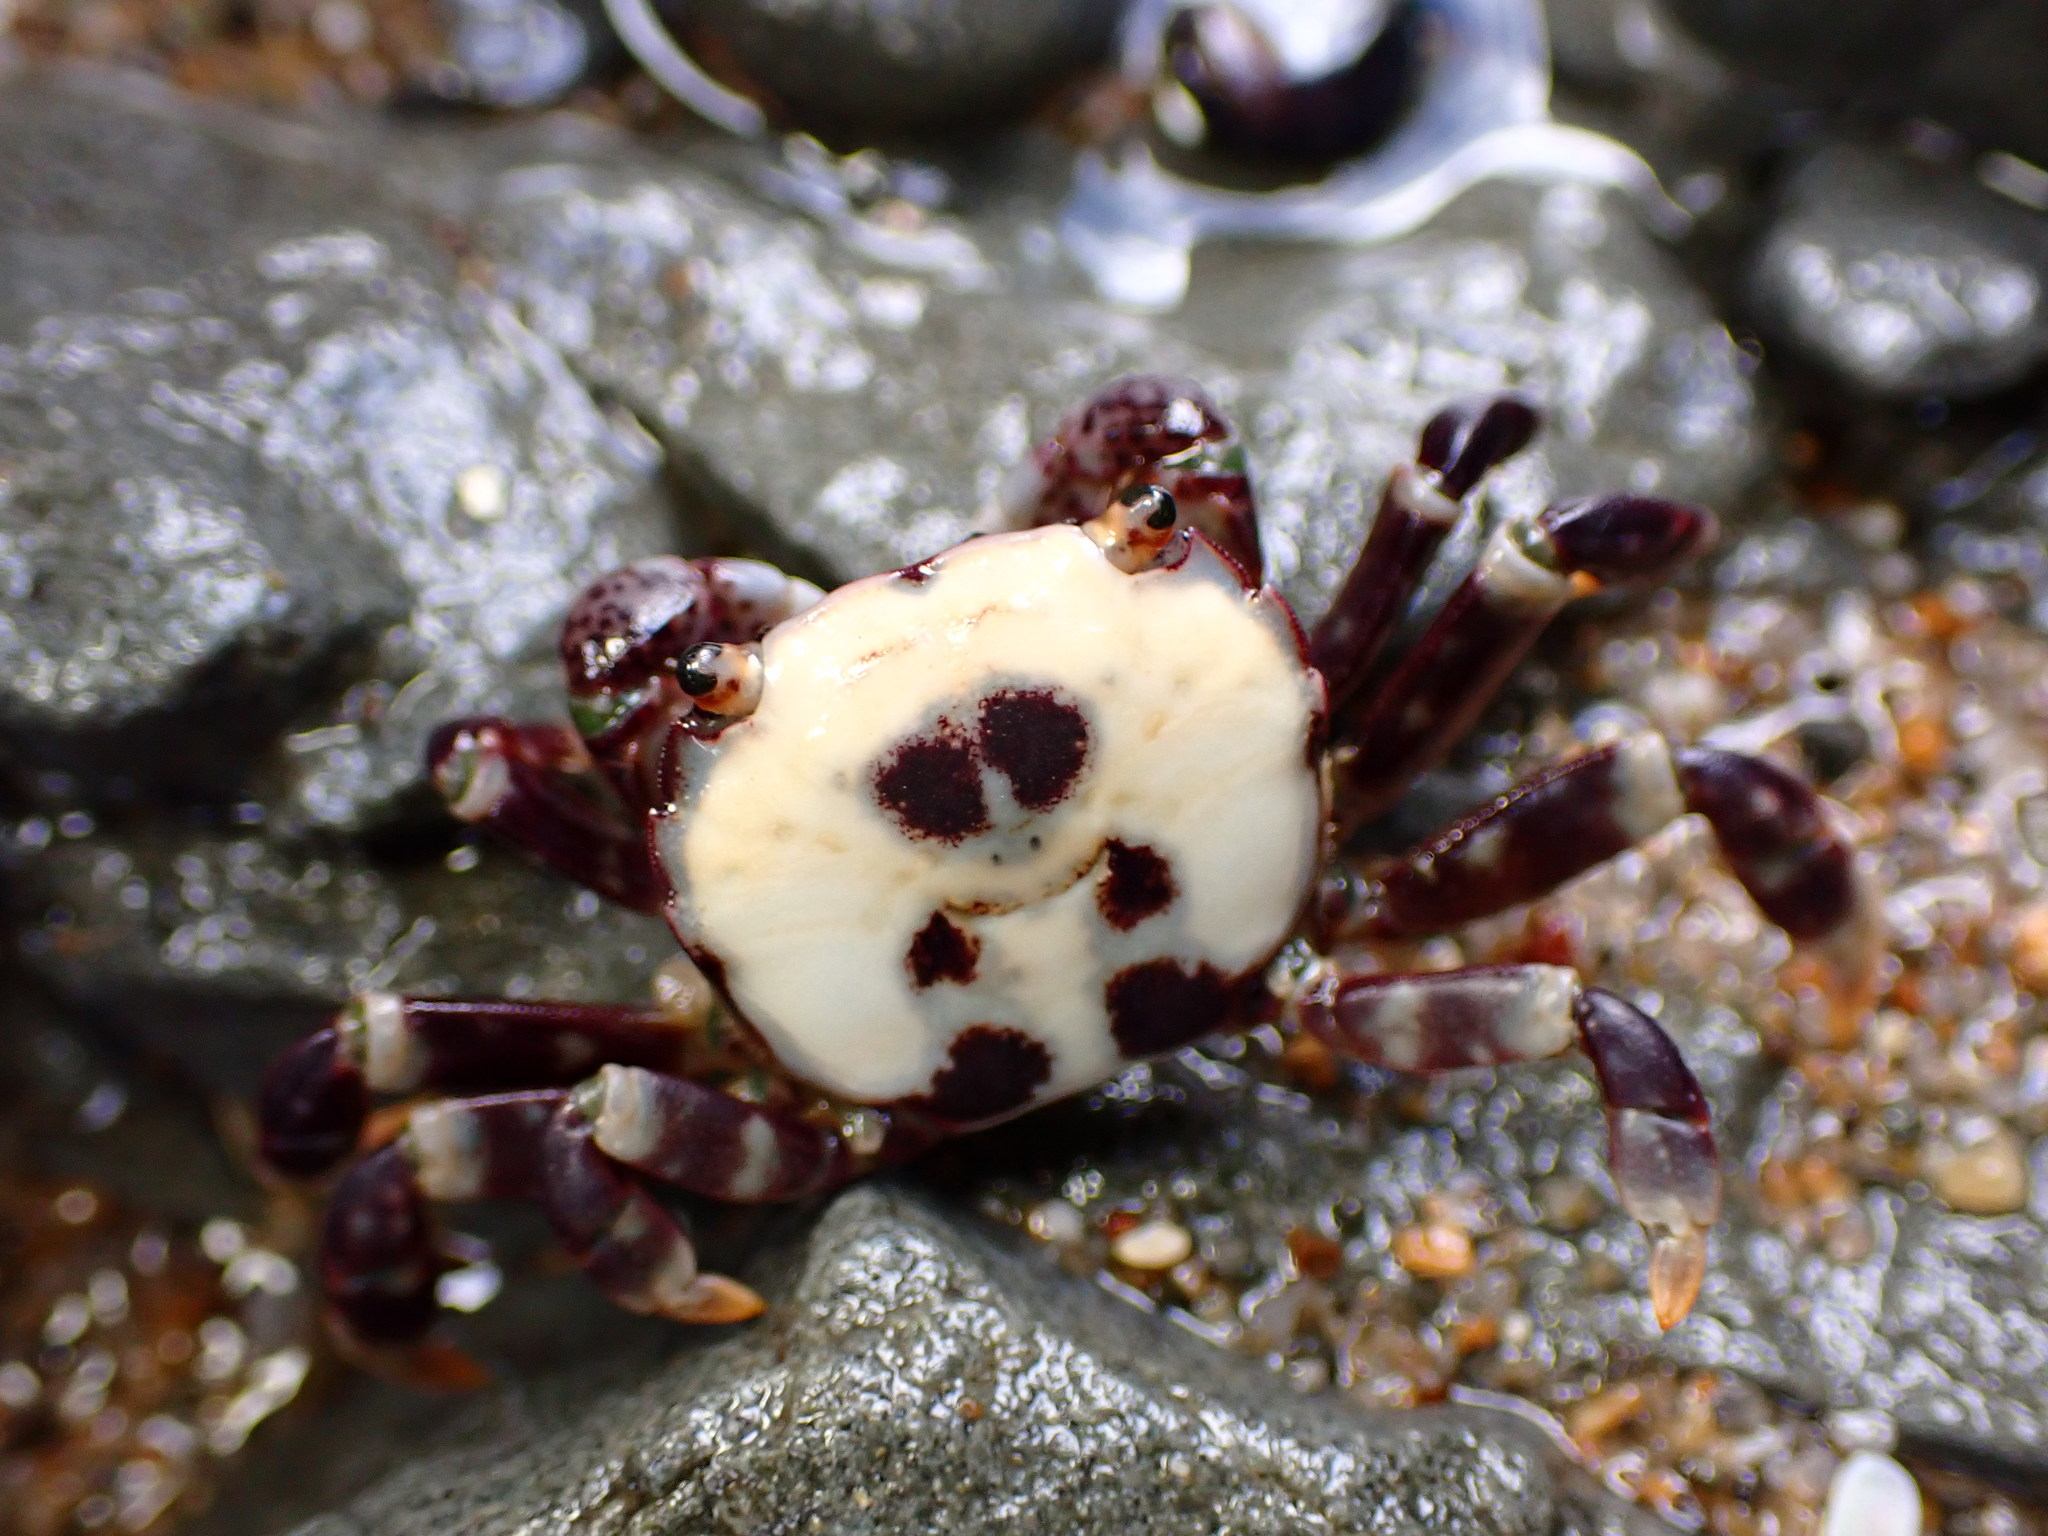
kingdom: Animalia
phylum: Arthropoda
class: Malacostraca
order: Decapoda
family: Varunidae
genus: Hemigrapsus
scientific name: Hemigrapsus nudus
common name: Purple shore crab
